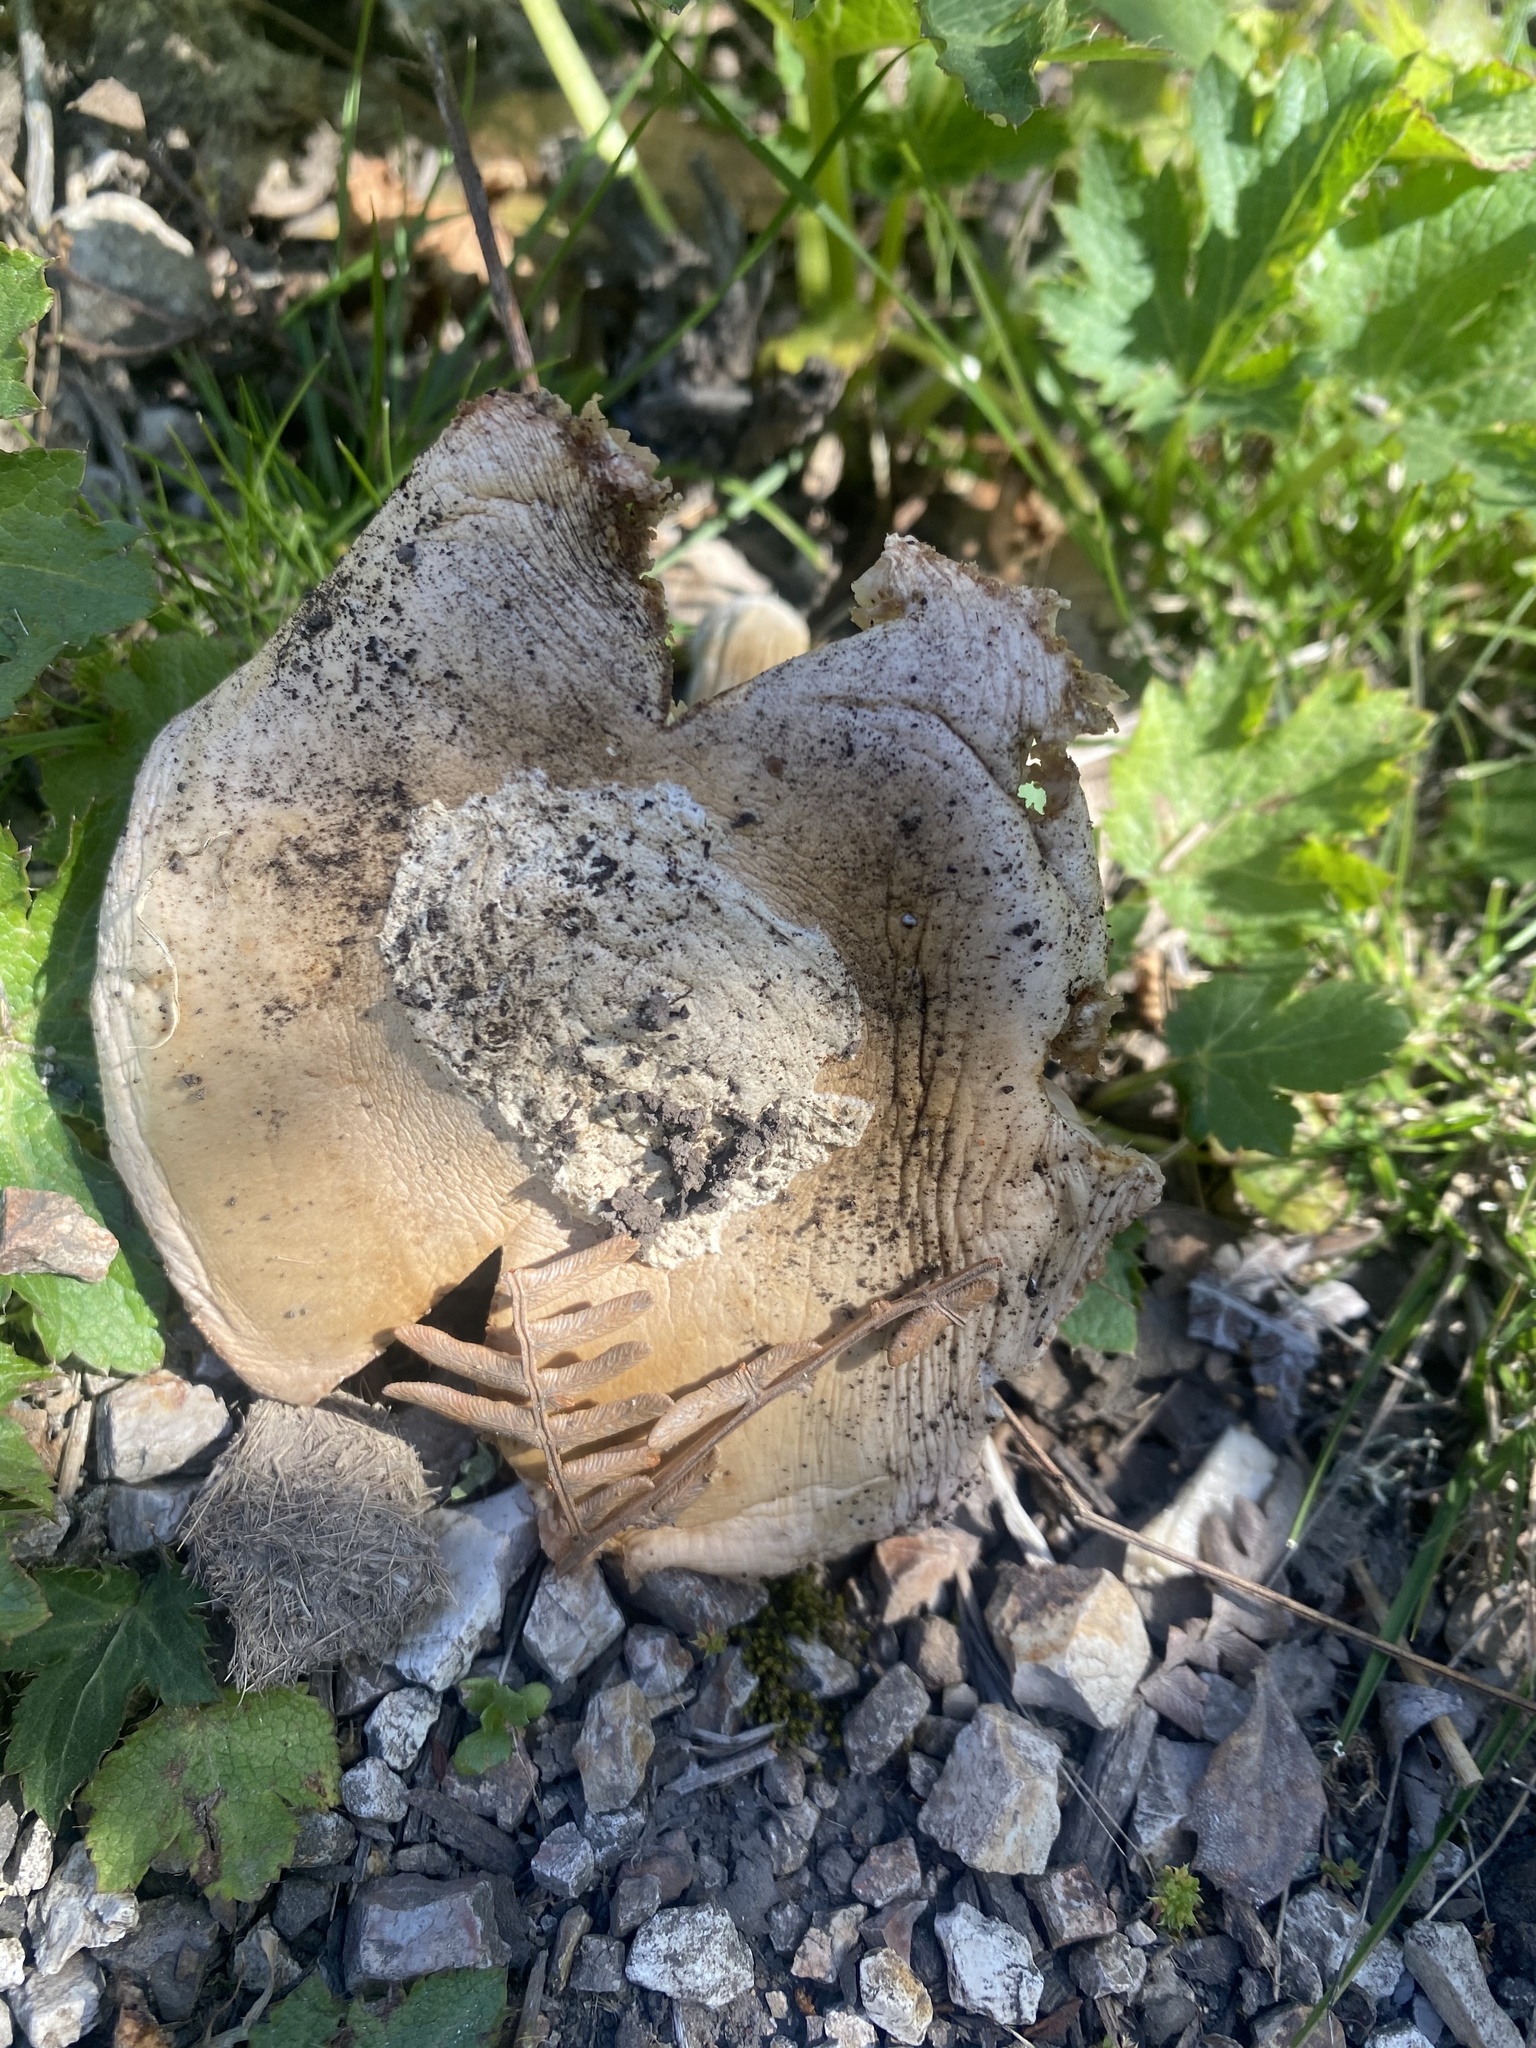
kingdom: Fungi
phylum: Basidiomycota
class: Agaricomycetes
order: Agaricales
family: Amanitaceae
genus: Amanita
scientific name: Amanita velosa
